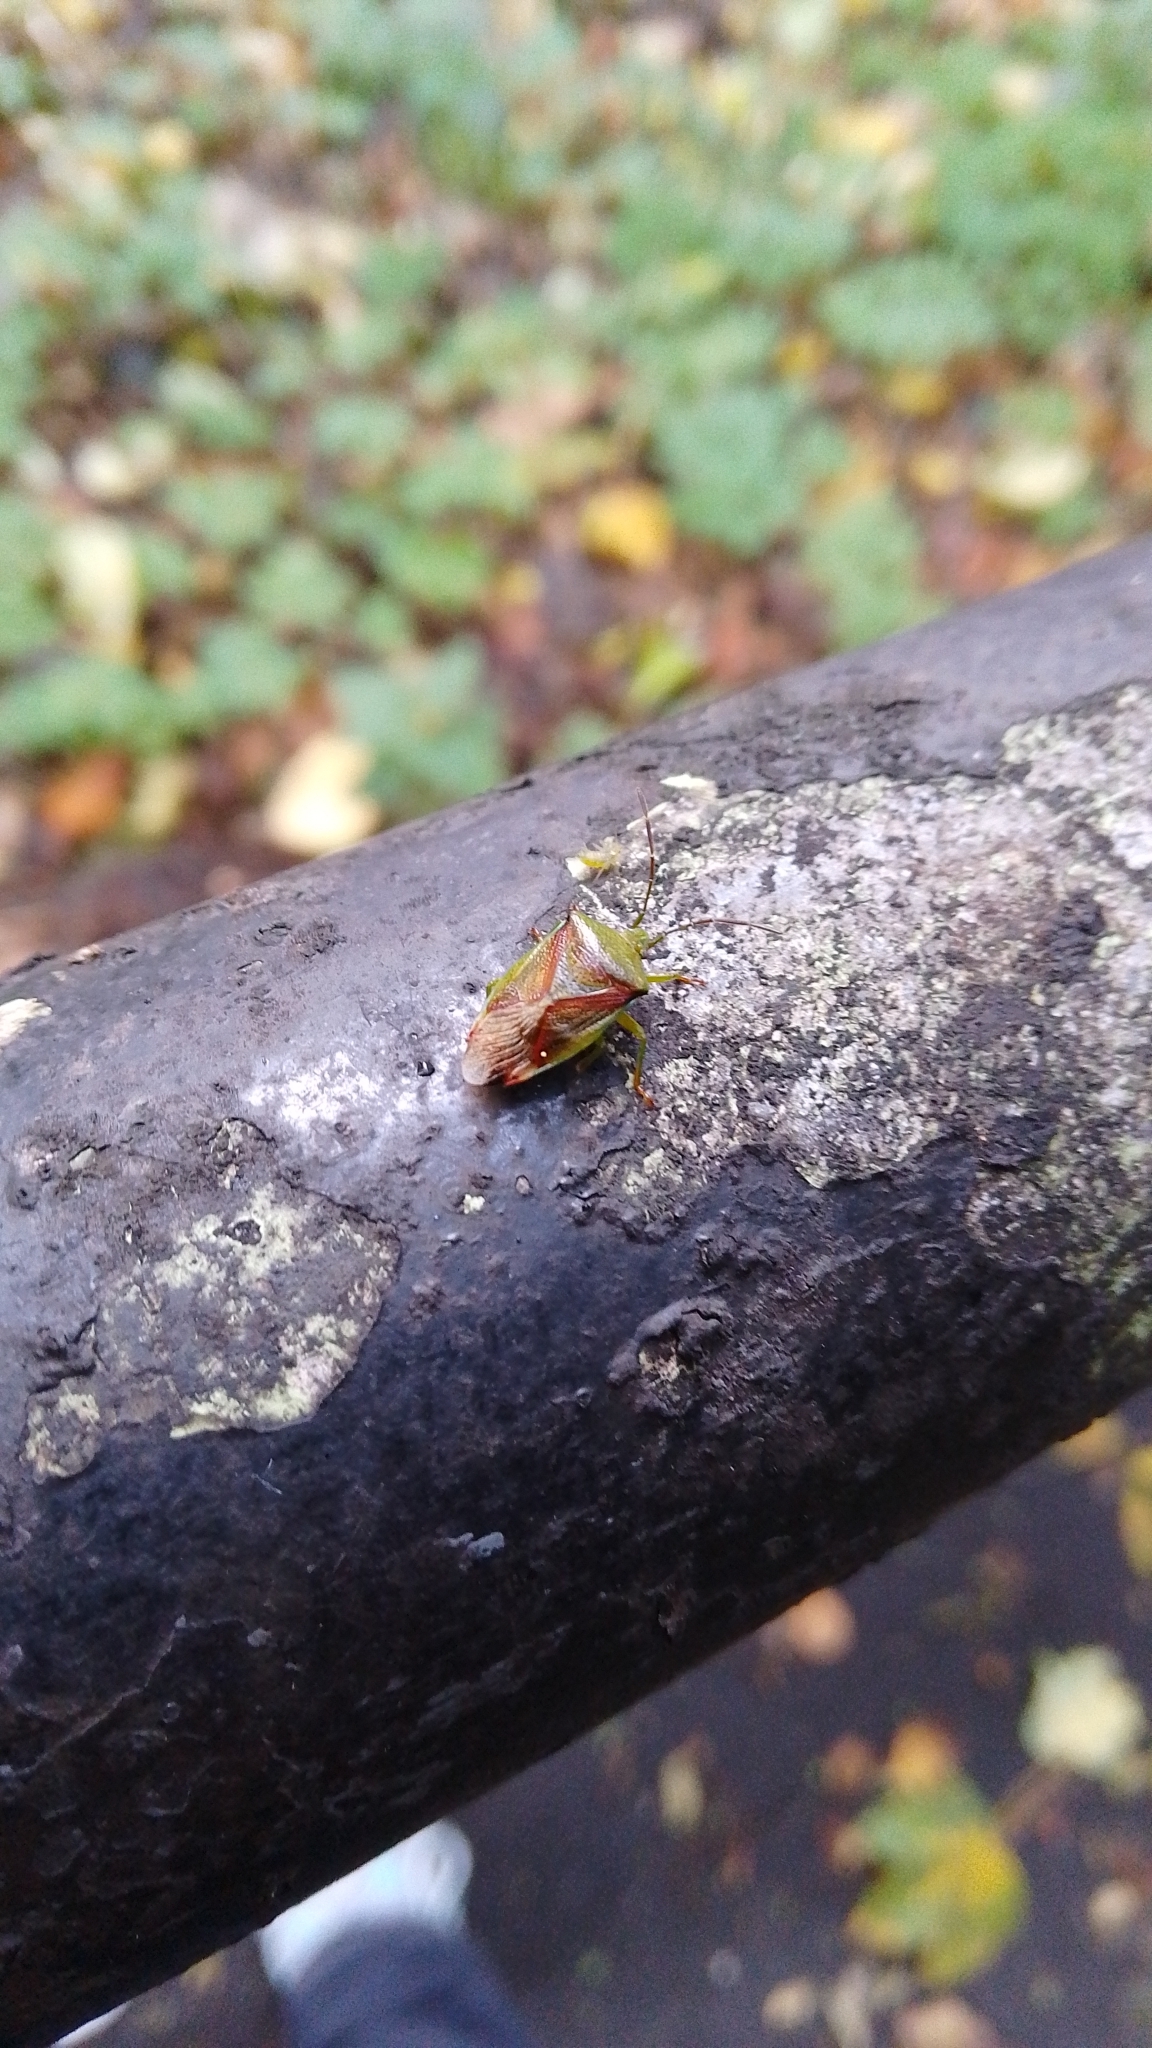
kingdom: Animalia
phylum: Arthropoda
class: Insecta
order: Hemiptera
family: Acanthosomatidae
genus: Elasmostethus
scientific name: Elasmostethus interstinctus
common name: Birch shieldbug
